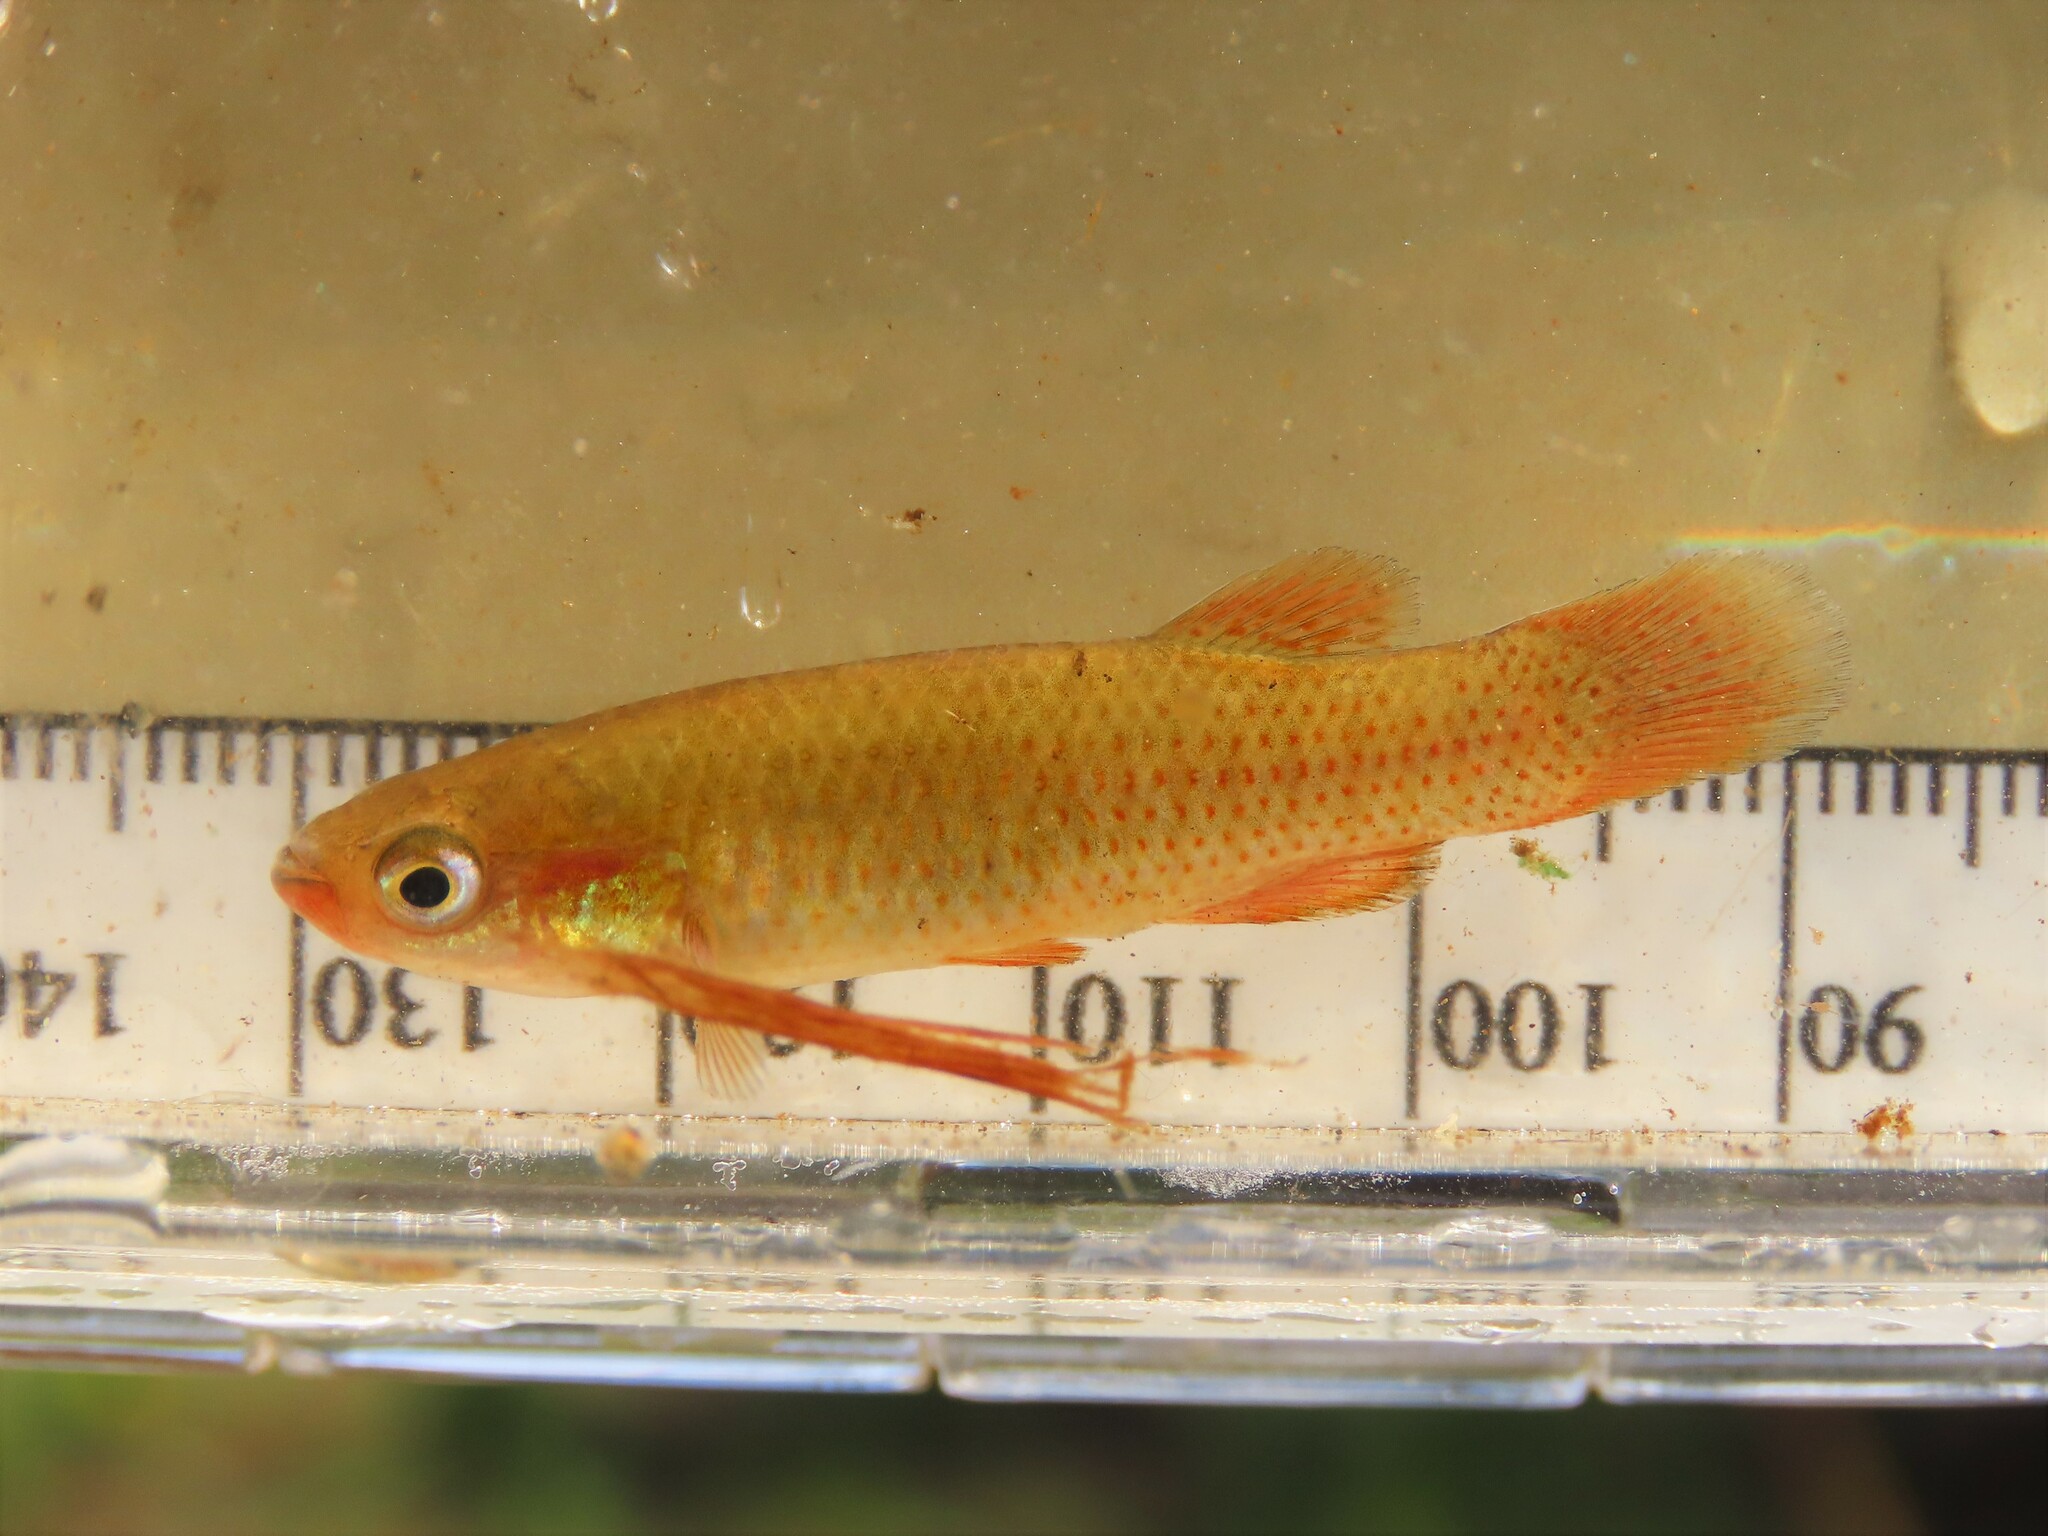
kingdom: Animalia
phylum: Chordata
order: Cyprinodontiformes
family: Fundulidae
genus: Fundulus
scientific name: Fundulus rubrifrons
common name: Redface topminnow
